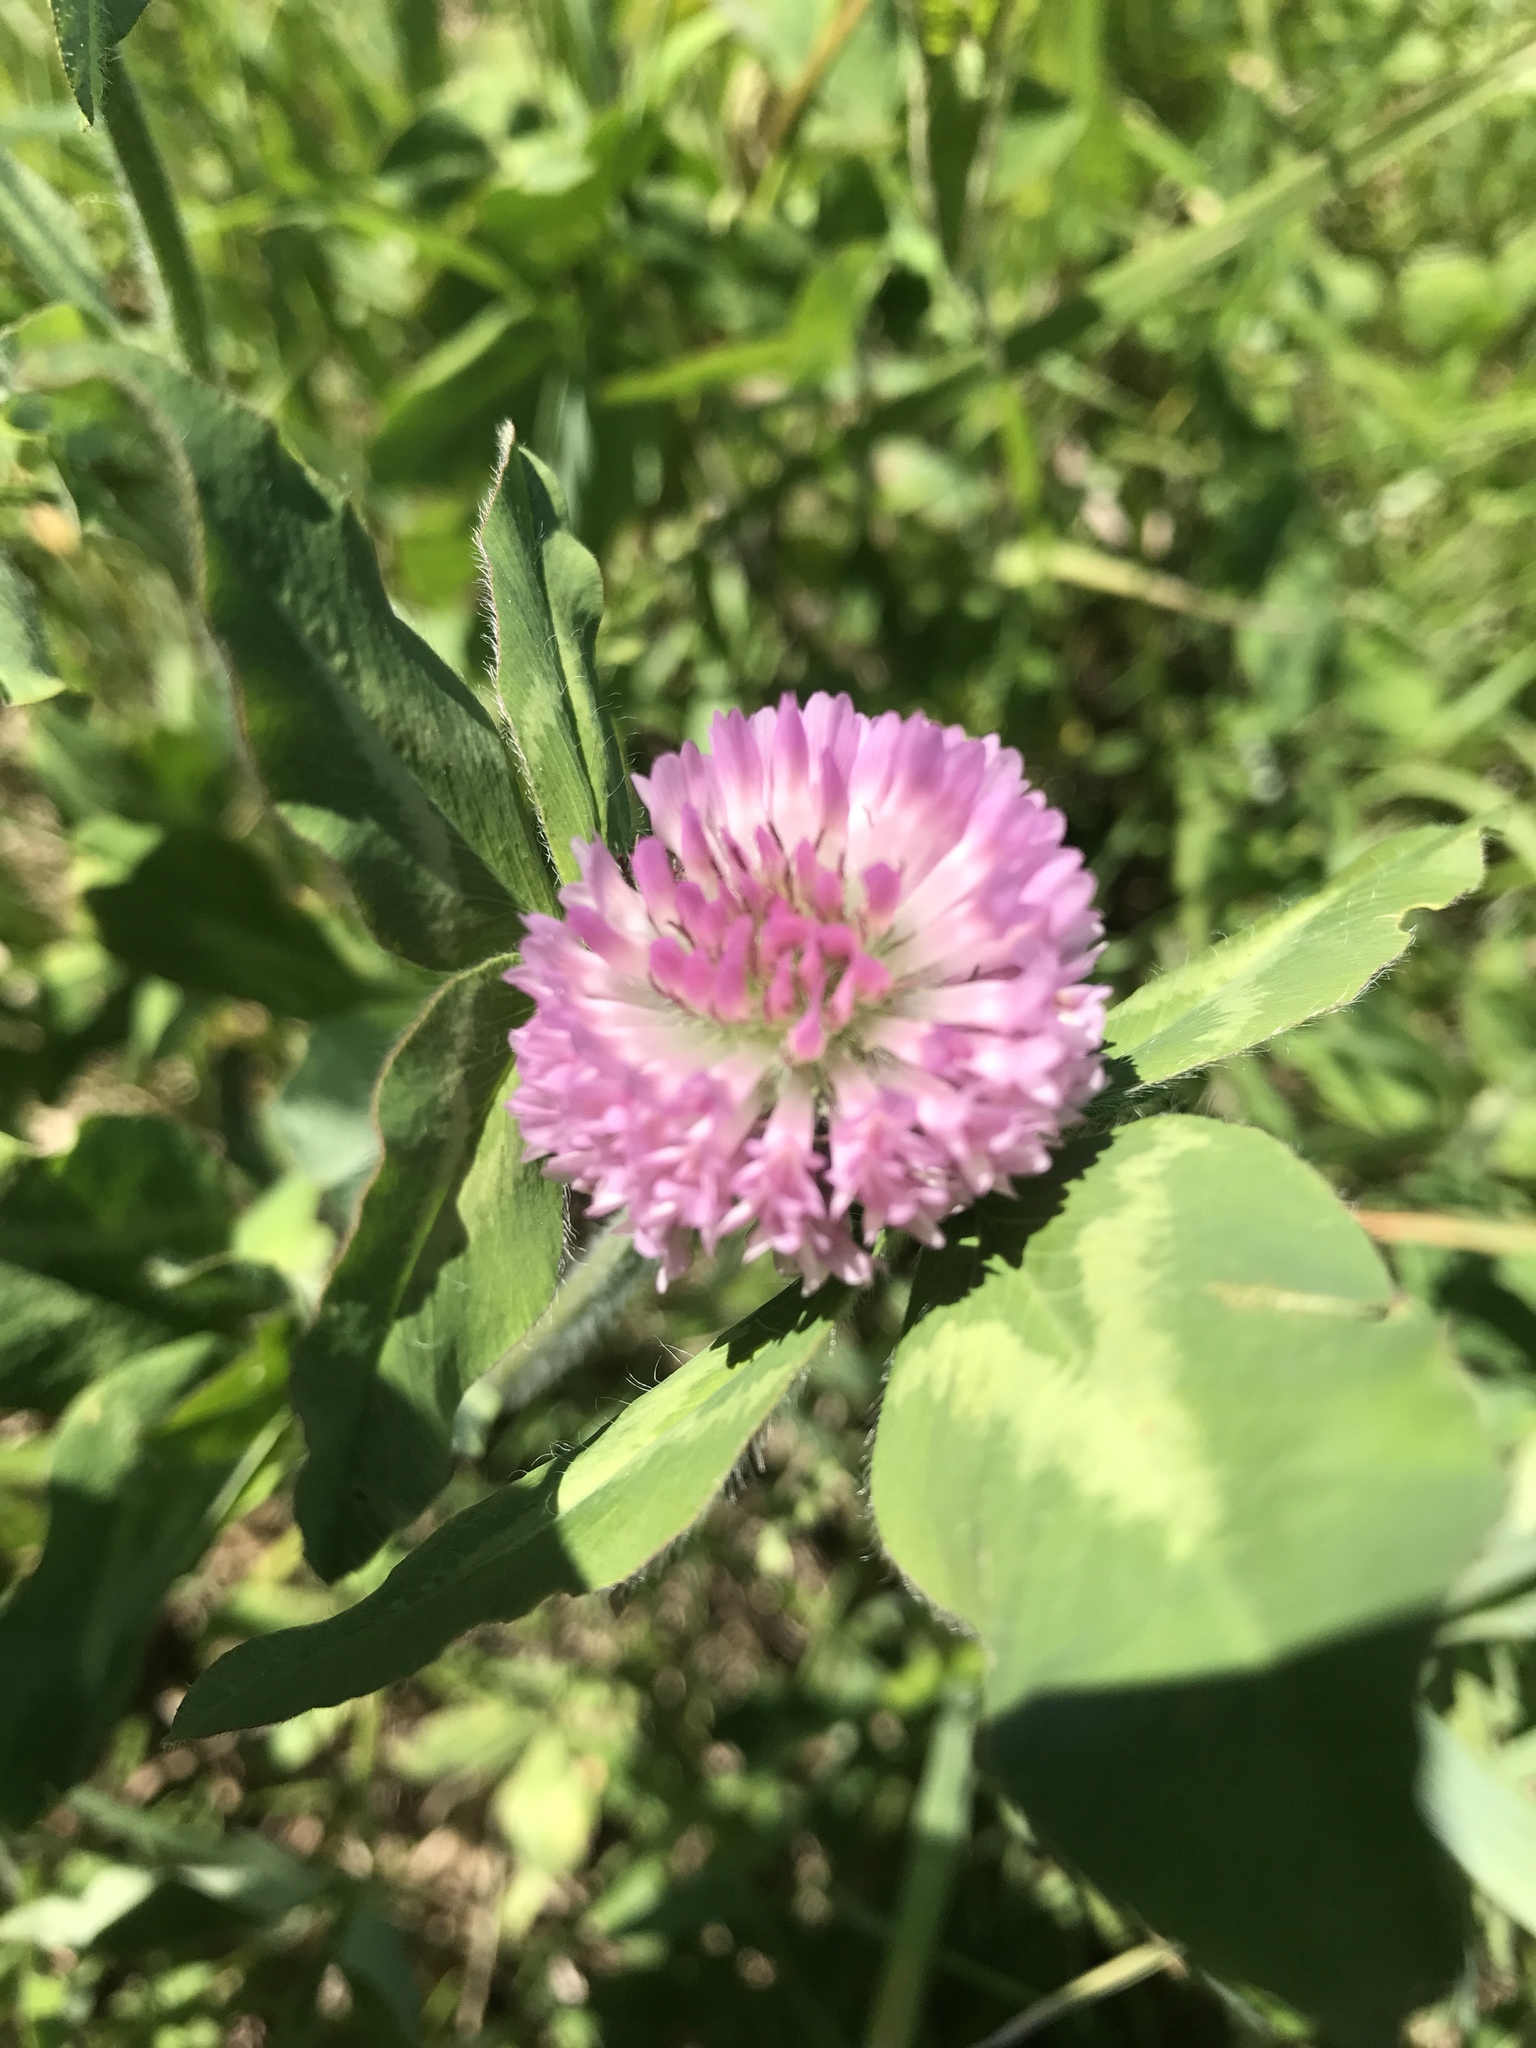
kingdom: Plantae
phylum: Tracheophyta
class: Magnoliopsida
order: Fabales
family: Fabaceae
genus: Trifolium
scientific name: Trifolium pratense
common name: Red clover
